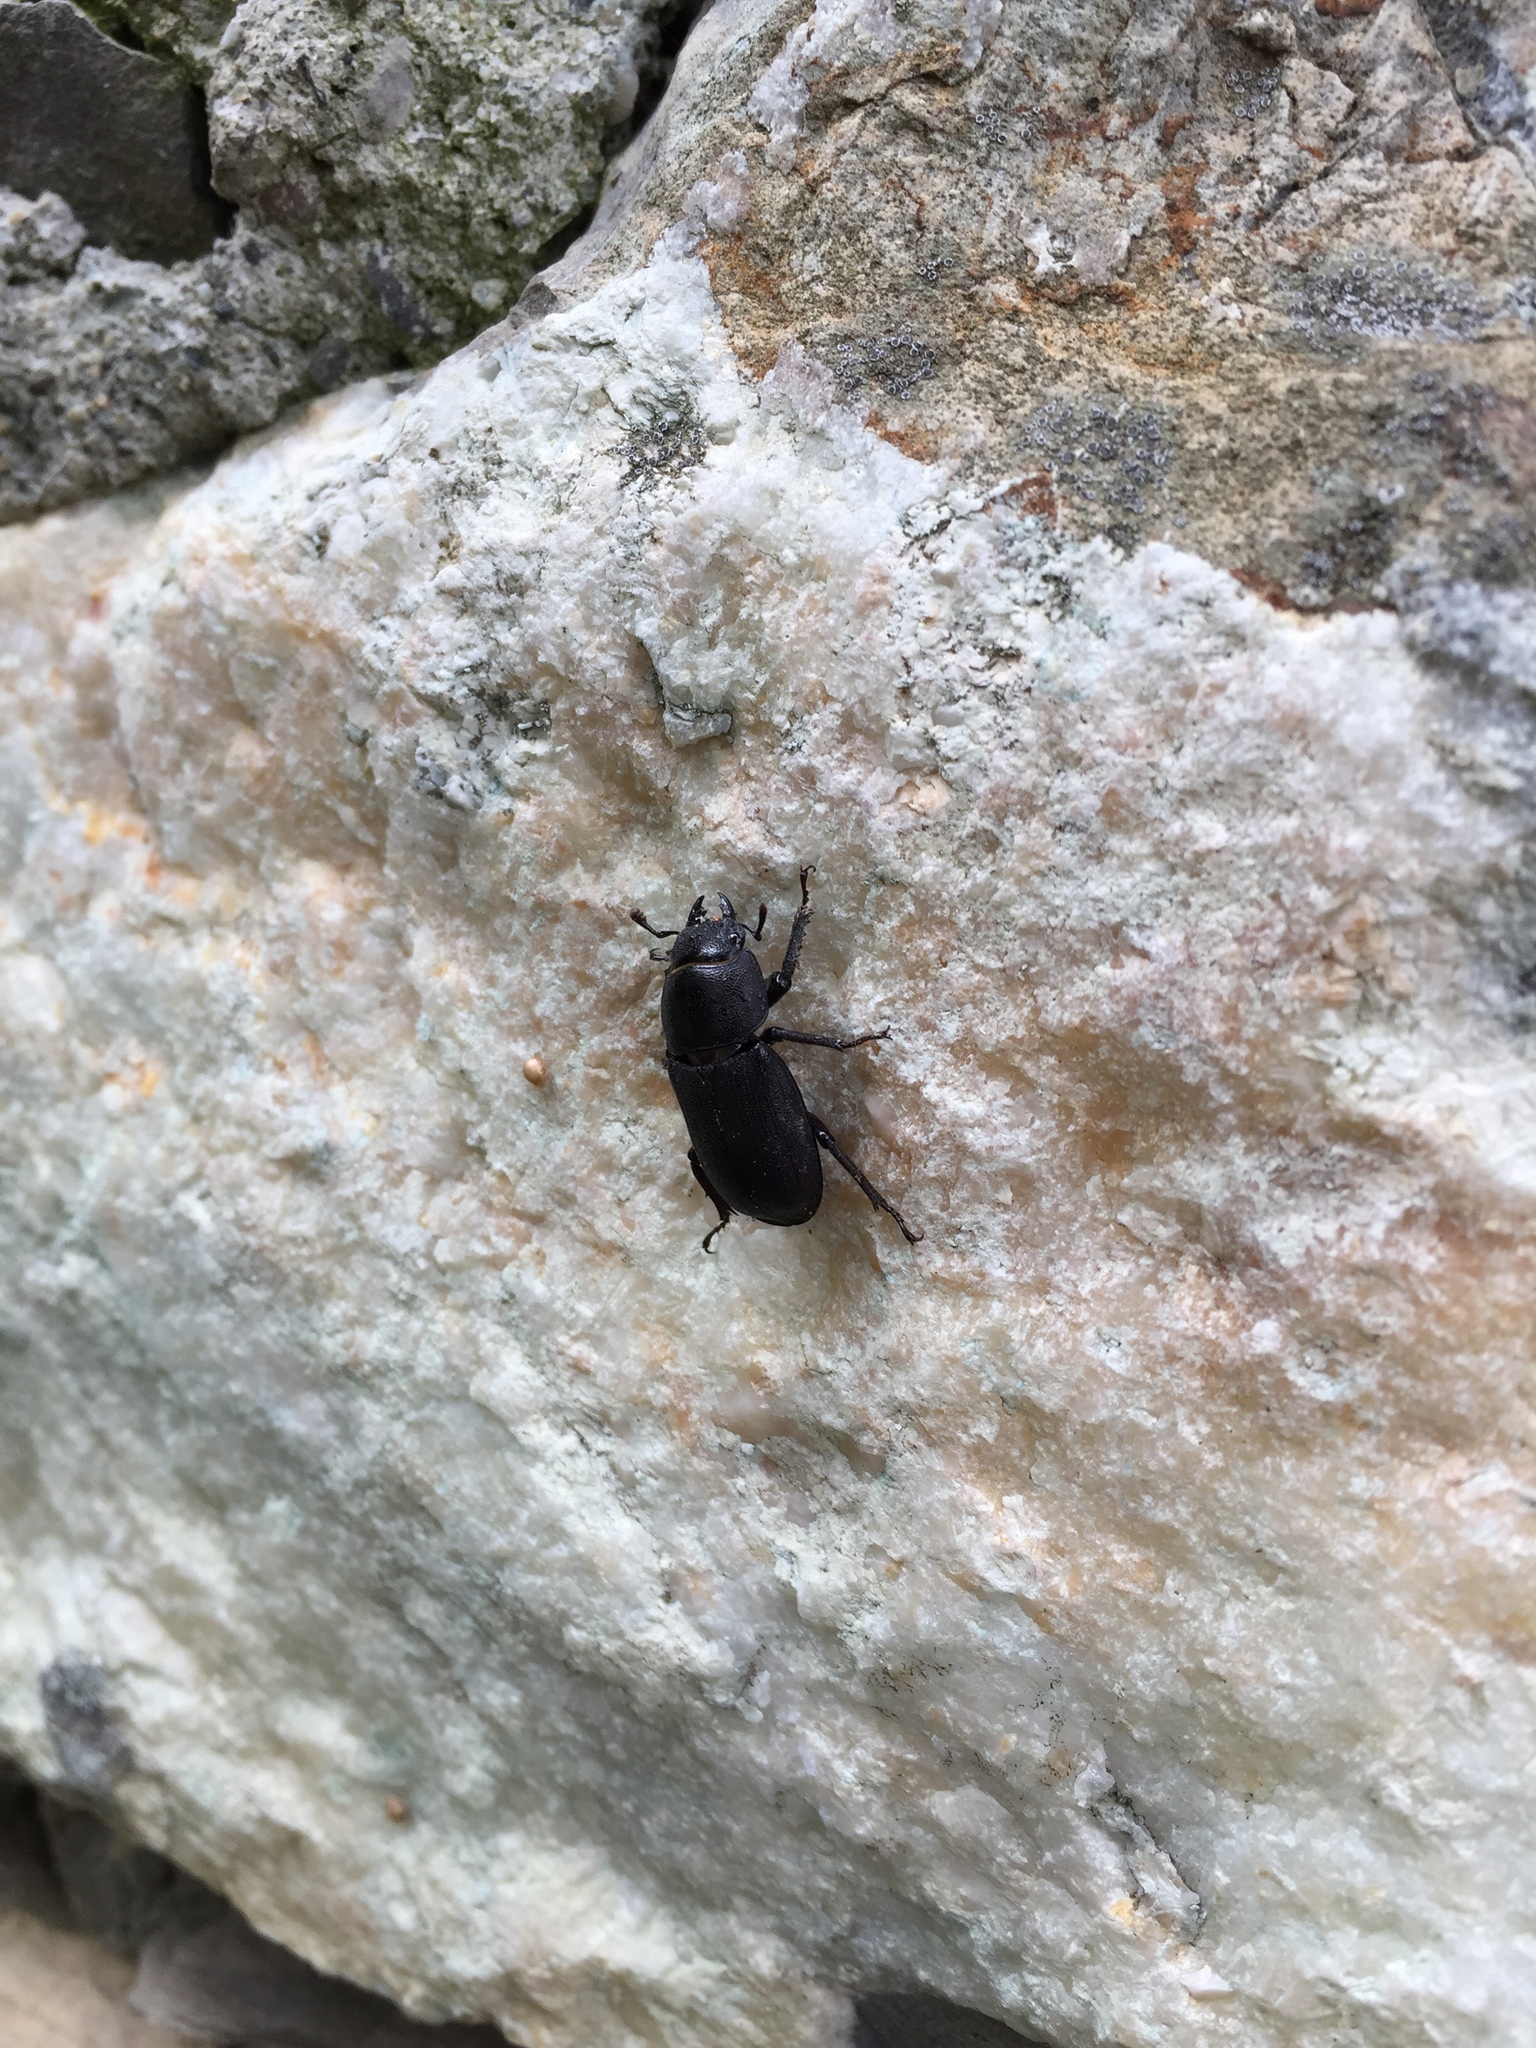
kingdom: Animalia
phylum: Arthropoda
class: Insecta
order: Coleoptera
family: Lucanidae
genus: Dorcus
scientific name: Dorcus parallelipipedus
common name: Lesser stag beetle
